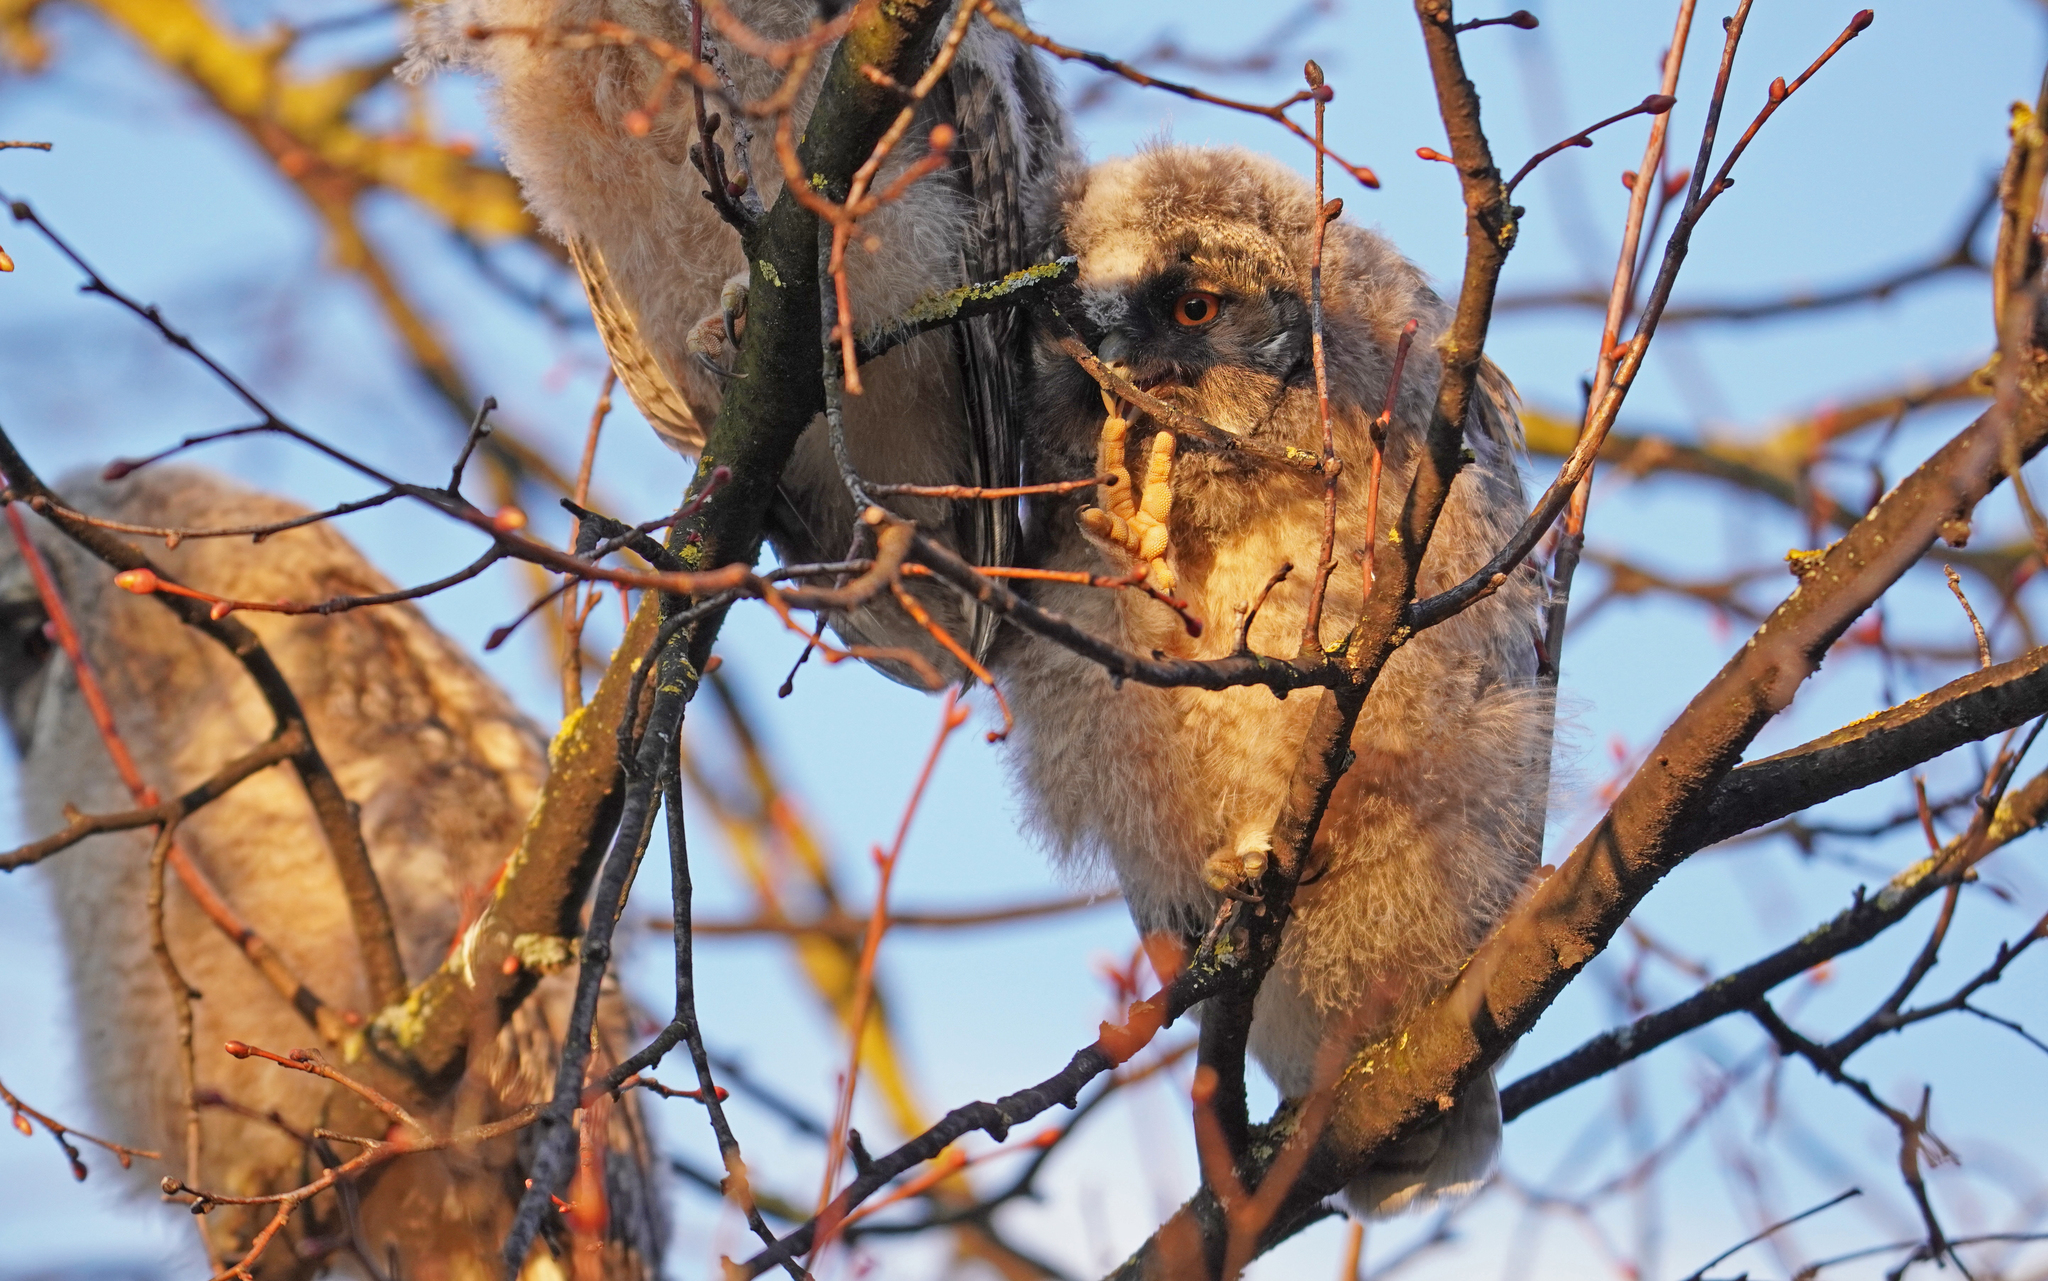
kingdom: Animalia
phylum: Chordata
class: Aves
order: Strigiformes
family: Strigidae
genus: Asio
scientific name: Asio otus
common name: Long-eared owl
